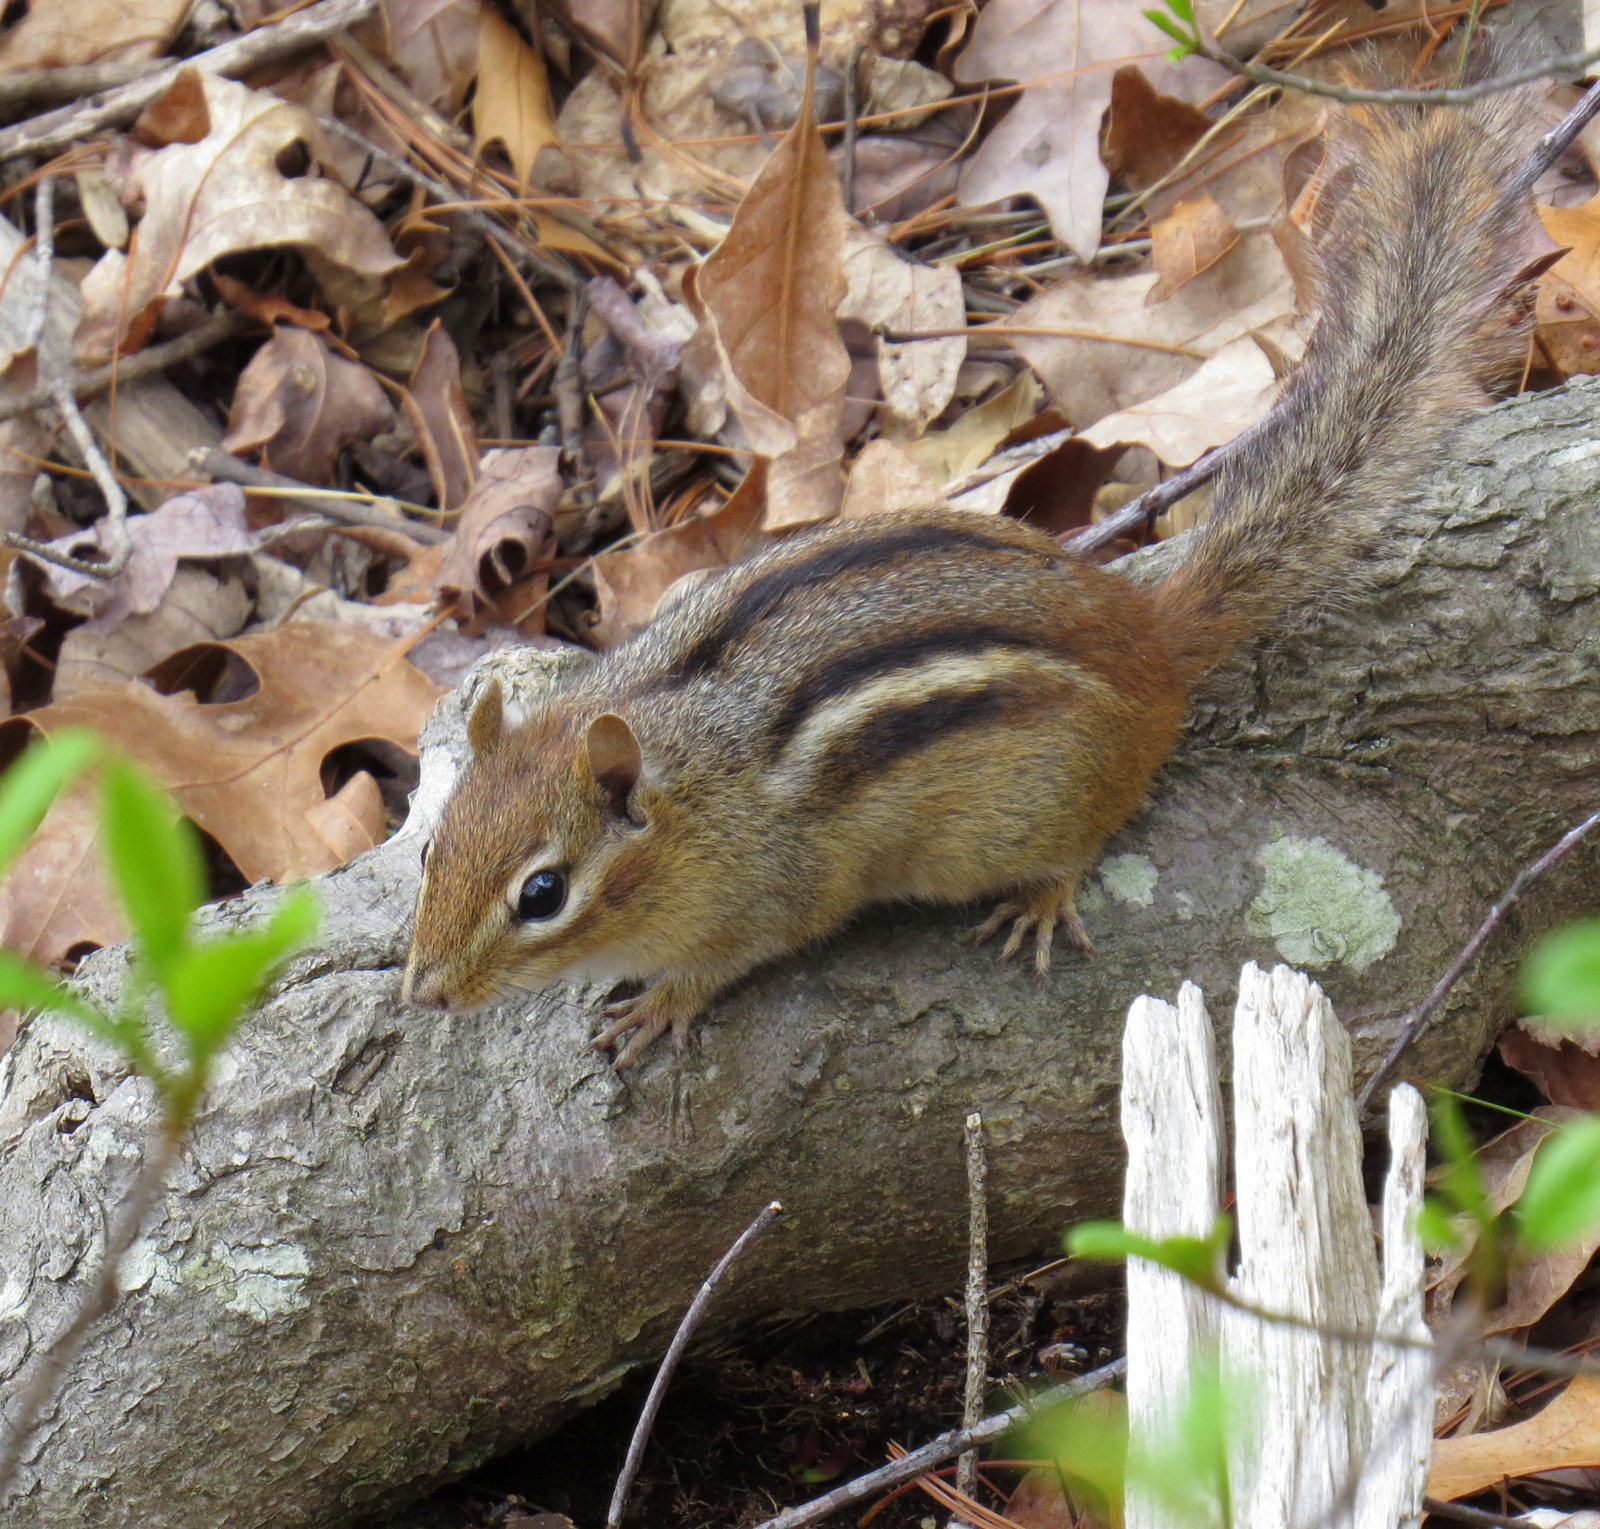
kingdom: Animalia
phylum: Chordata
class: Mammalia
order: Rodentia
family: Sciuridae
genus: Tamias
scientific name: Tamias striatus
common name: Eastern chipmunk
